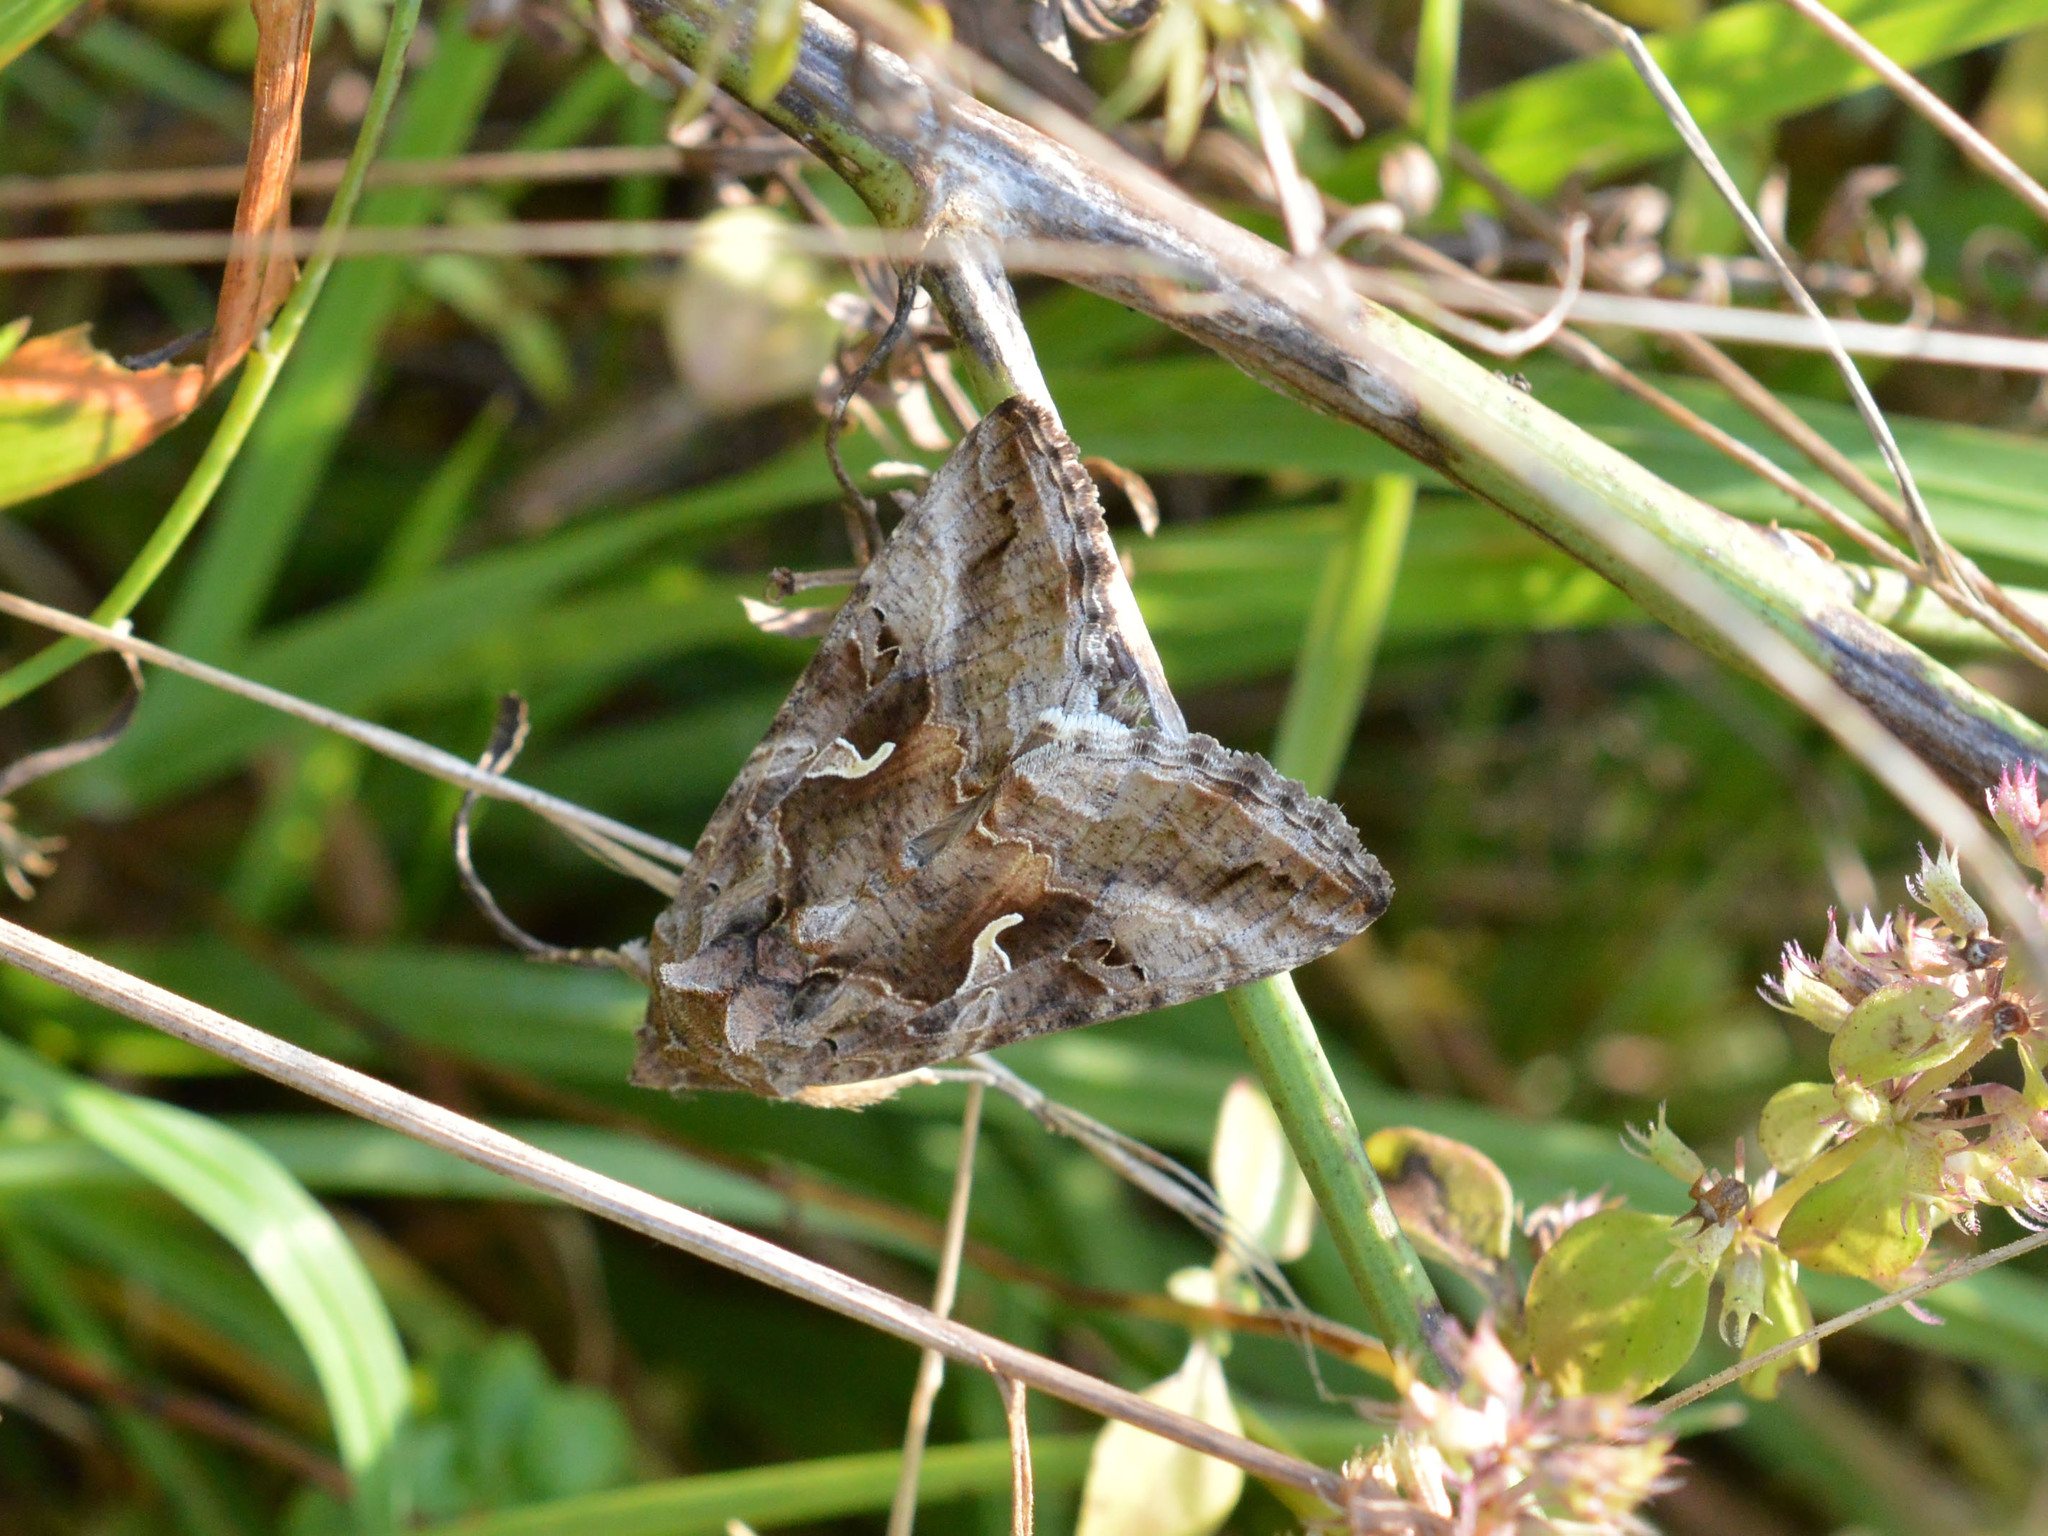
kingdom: Animalia
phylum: Arthropoda
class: Insecta
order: Lepidoptera
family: Noctuidae
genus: Autographa
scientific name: Autographa gamma
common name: Silver y
